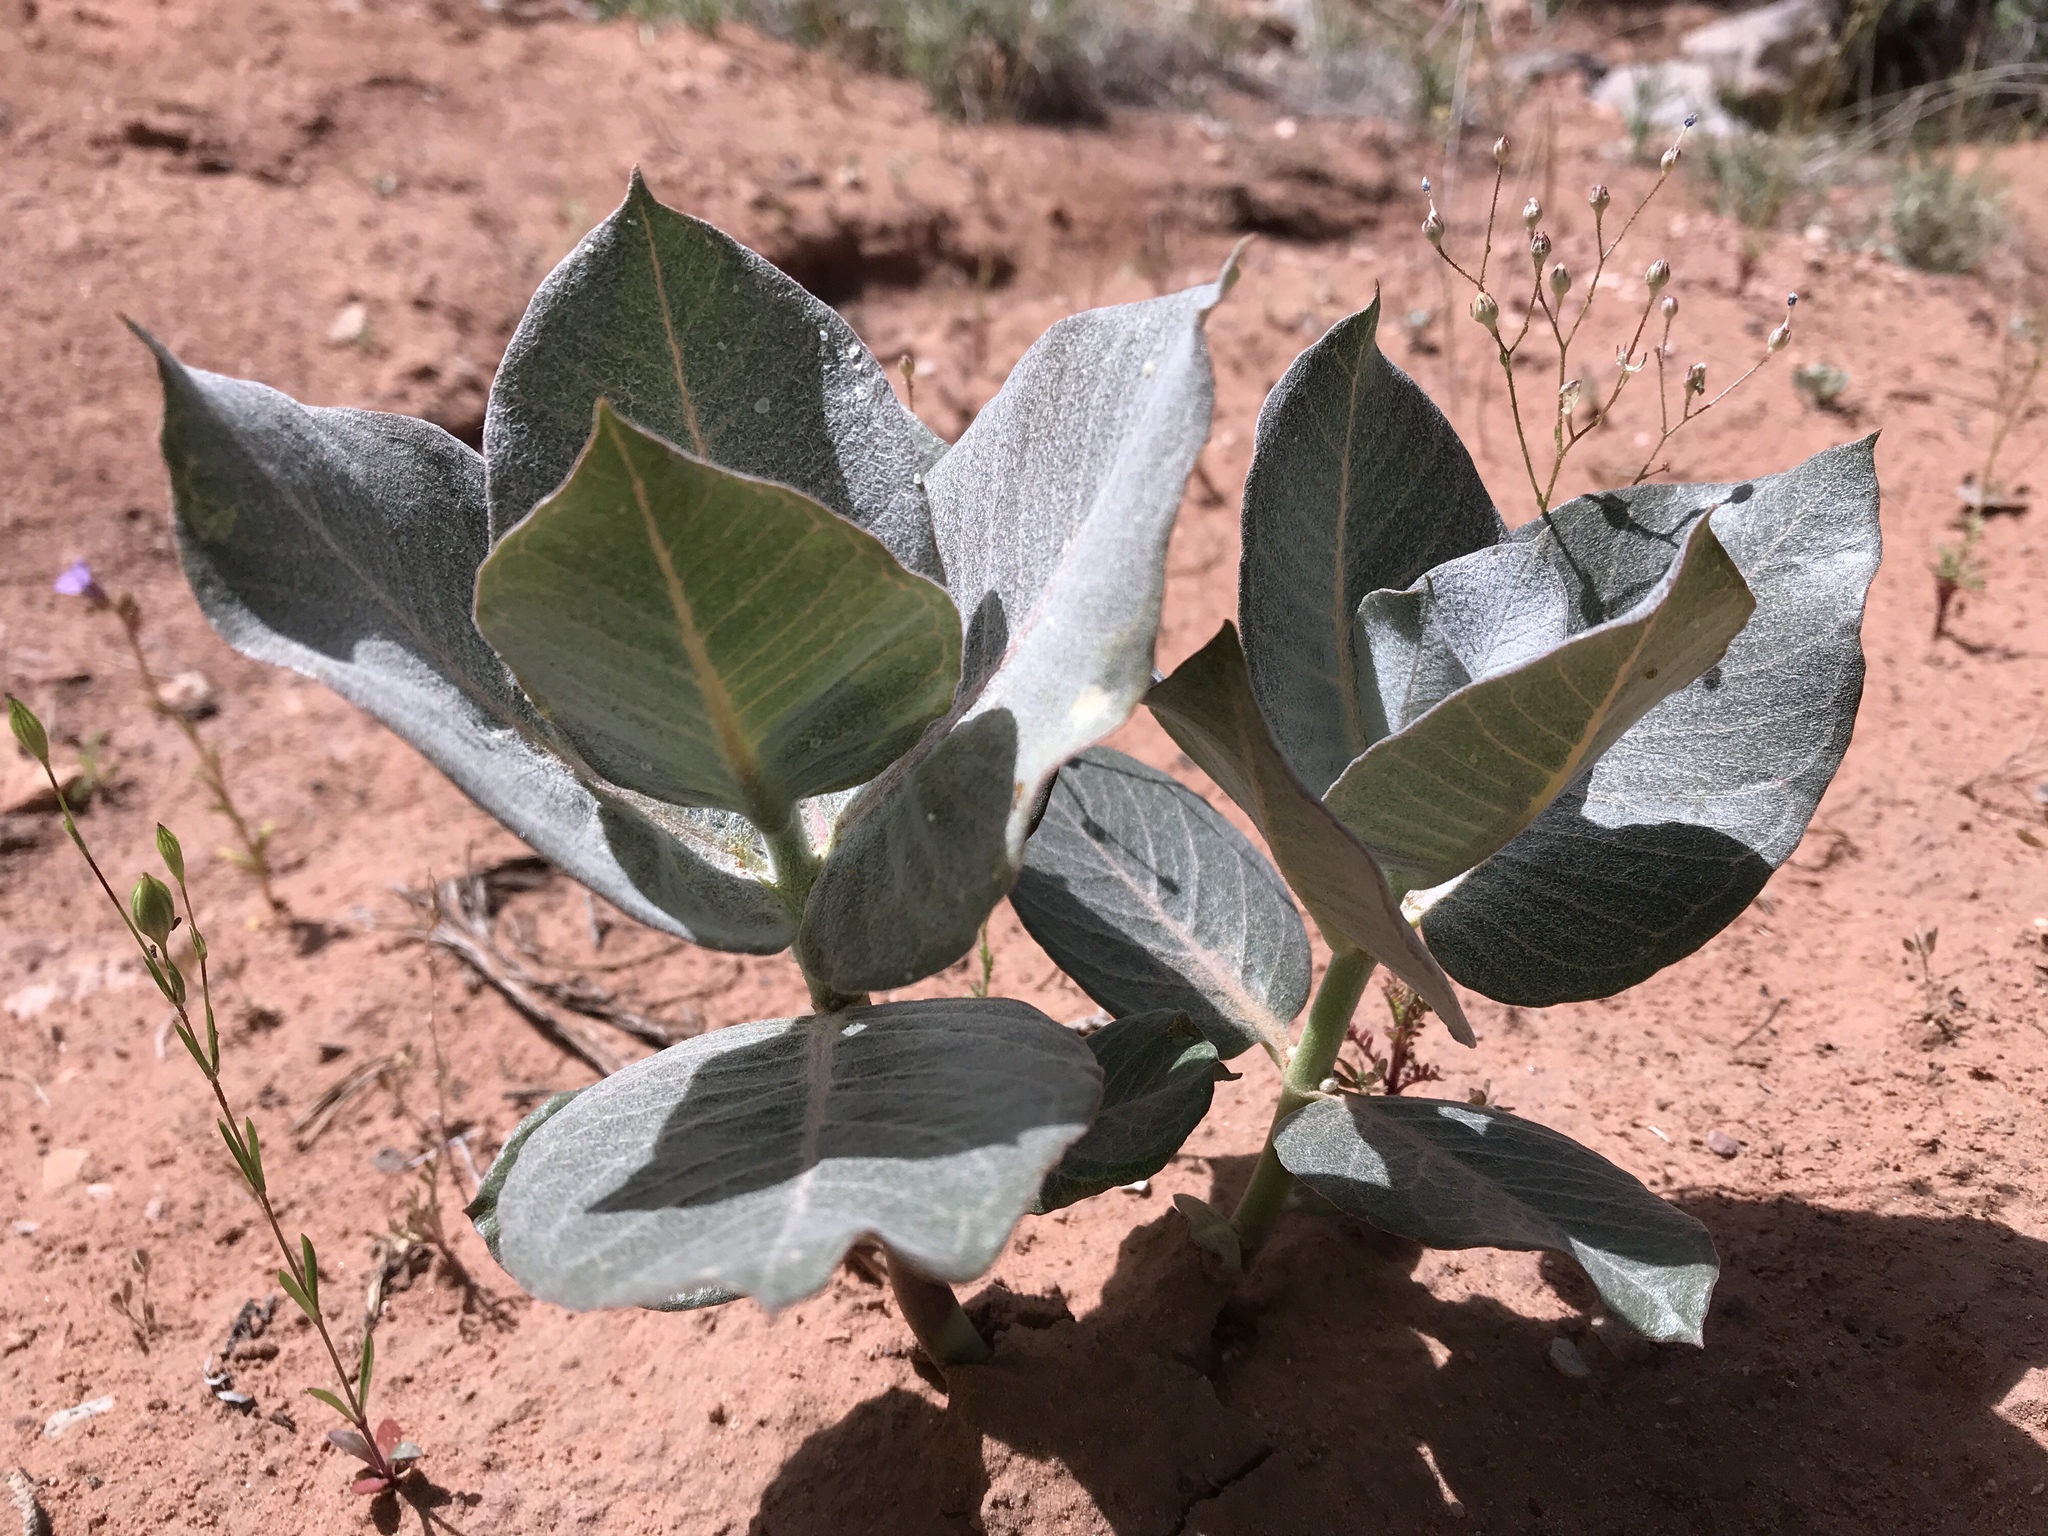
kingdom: Plantae
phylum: Tracheophyta
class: Magnoliopsida
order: Gentianales
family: Apocynaceae
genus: Asclepias
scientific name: Asclepias latifolia
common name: Broadleaf milkweed
